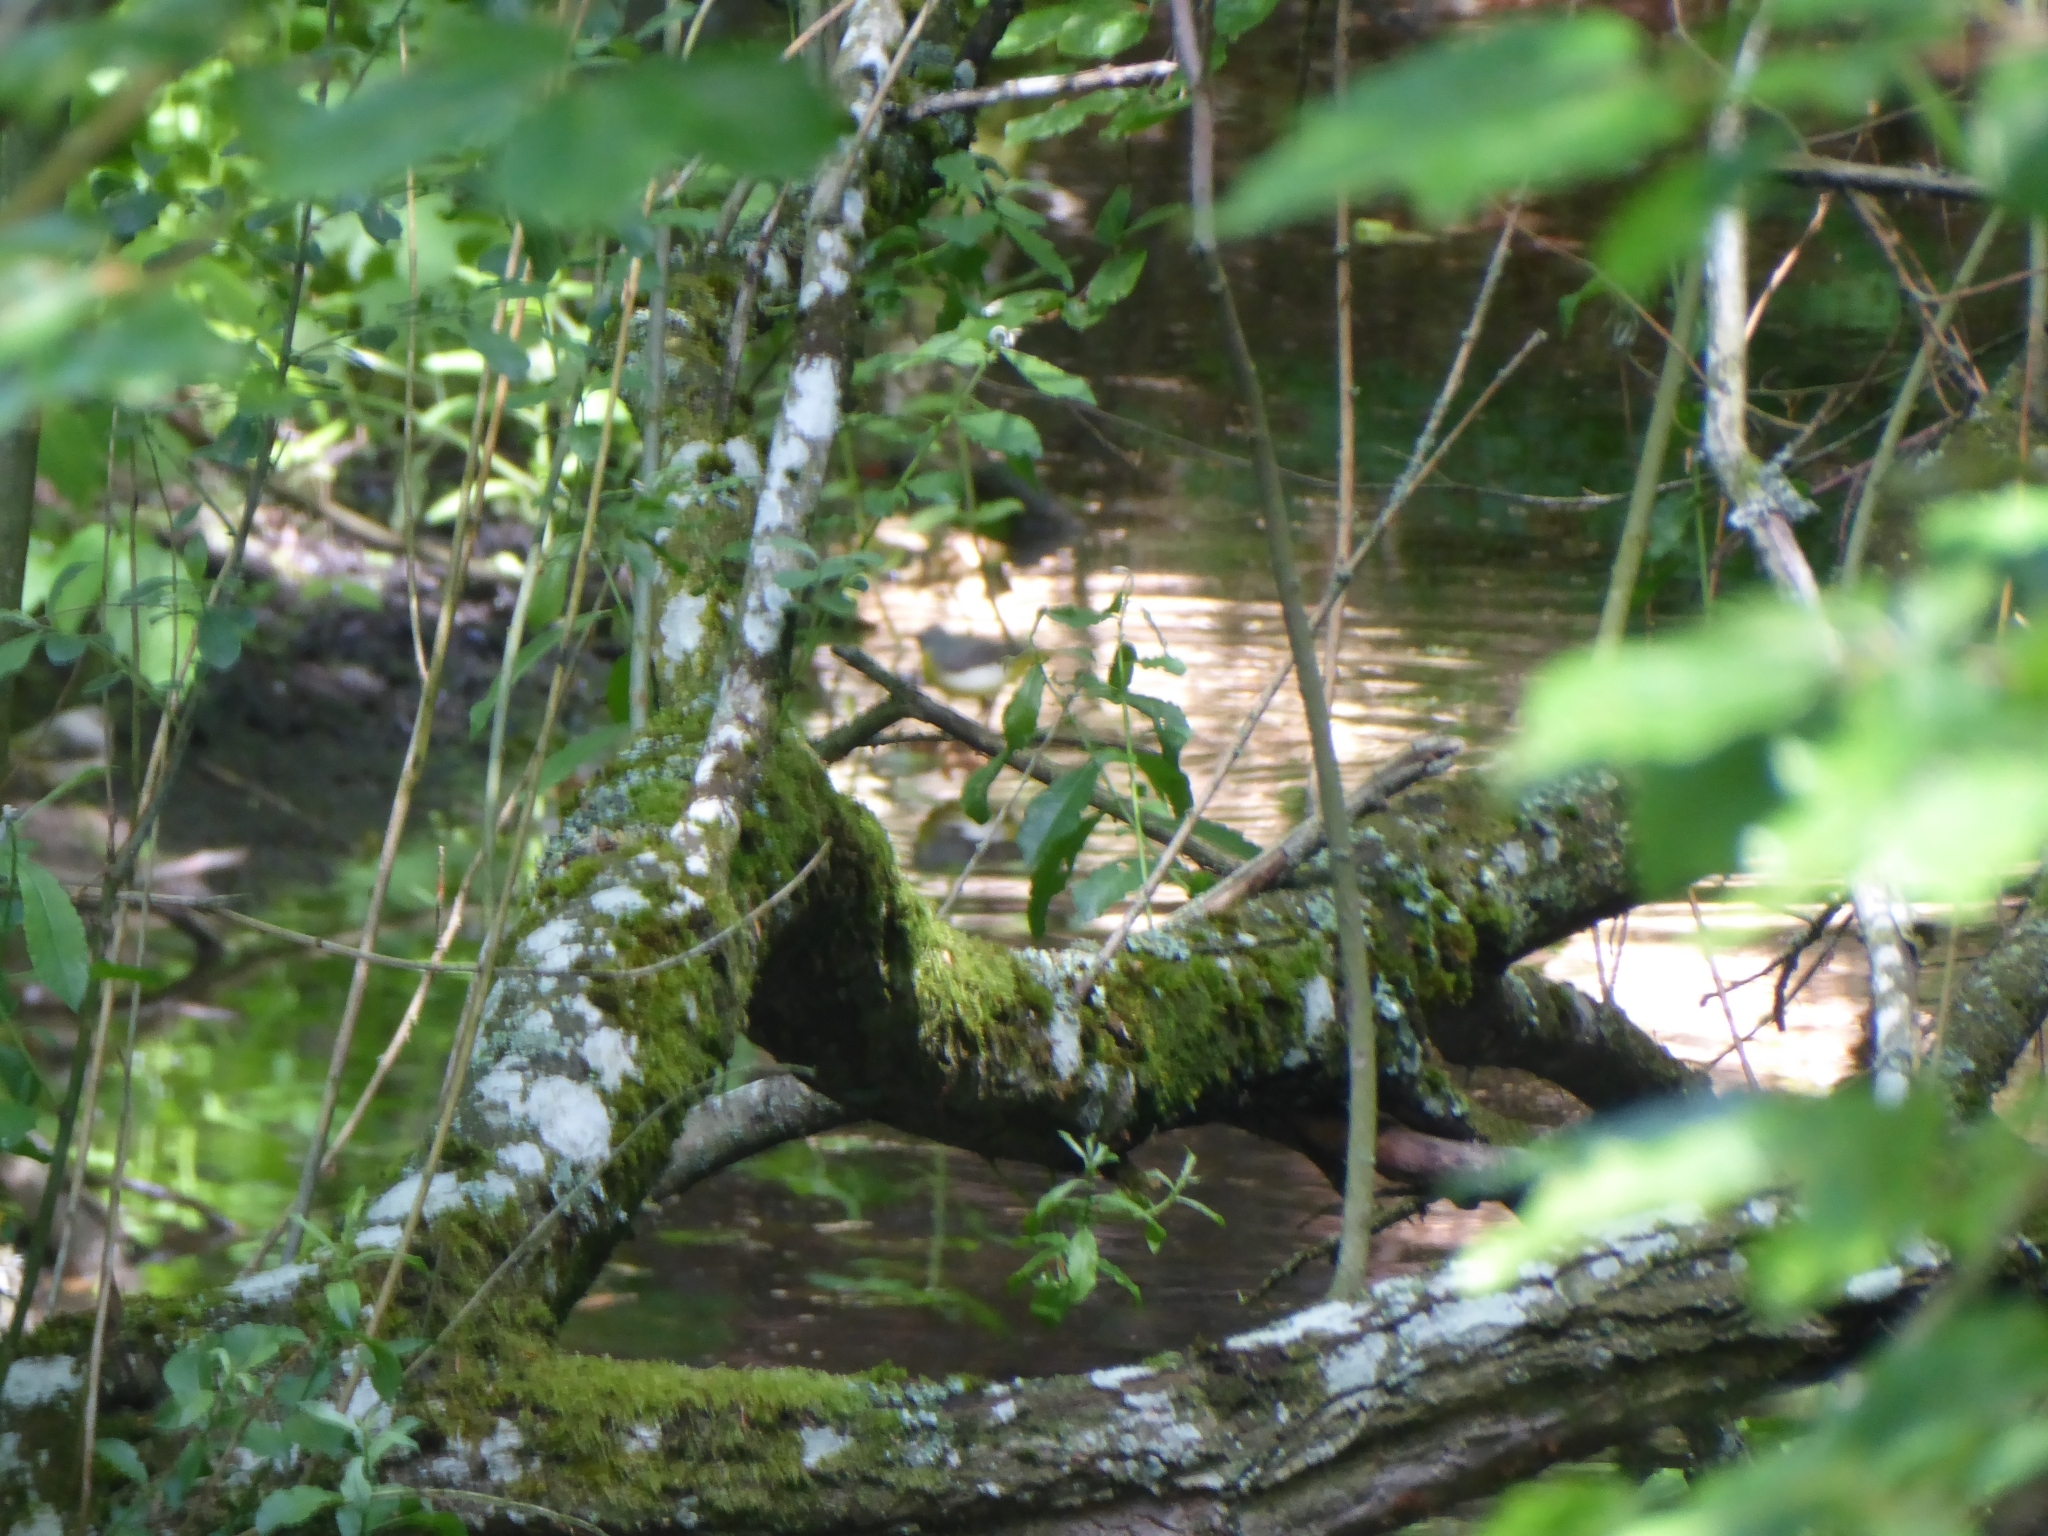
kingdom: Animalia
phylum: Chordata
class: Aves
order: Passeriformes
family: Motacillidae
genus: Motacilla
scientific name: Motacilla cinerea
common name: Grey wagtail
